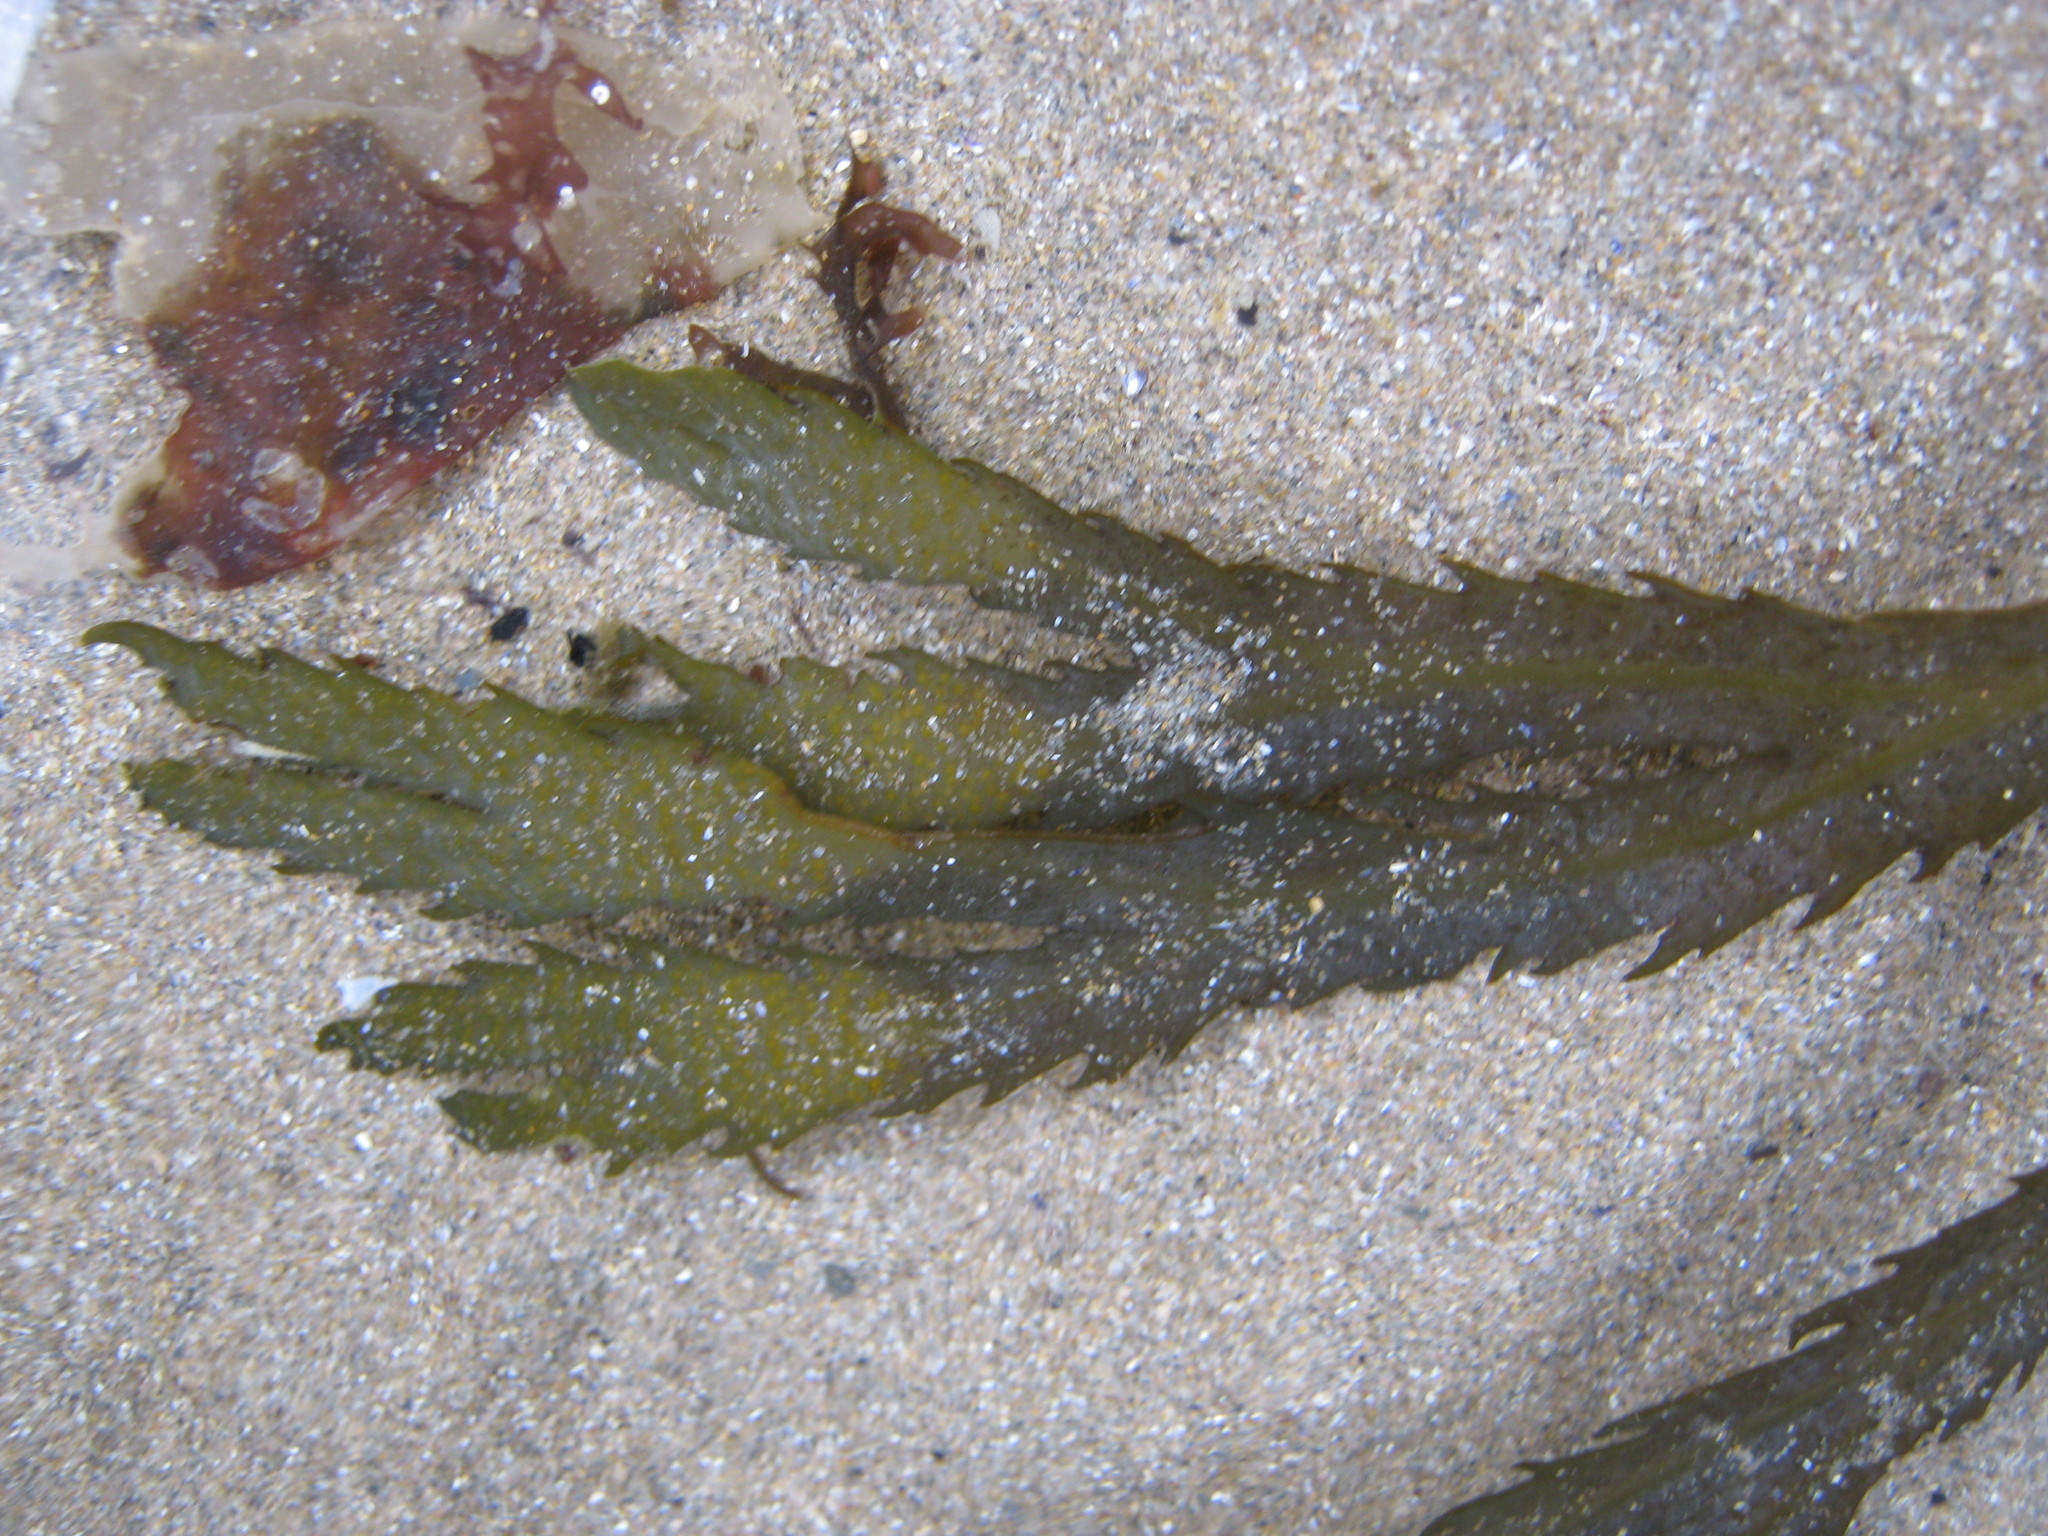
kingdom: Chromista
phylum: Ochrophyta
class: Phaeophyceae
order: Fucales
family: Fucaceae
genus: Fucus
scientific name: Fucus serratus
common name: Toothed wrack
